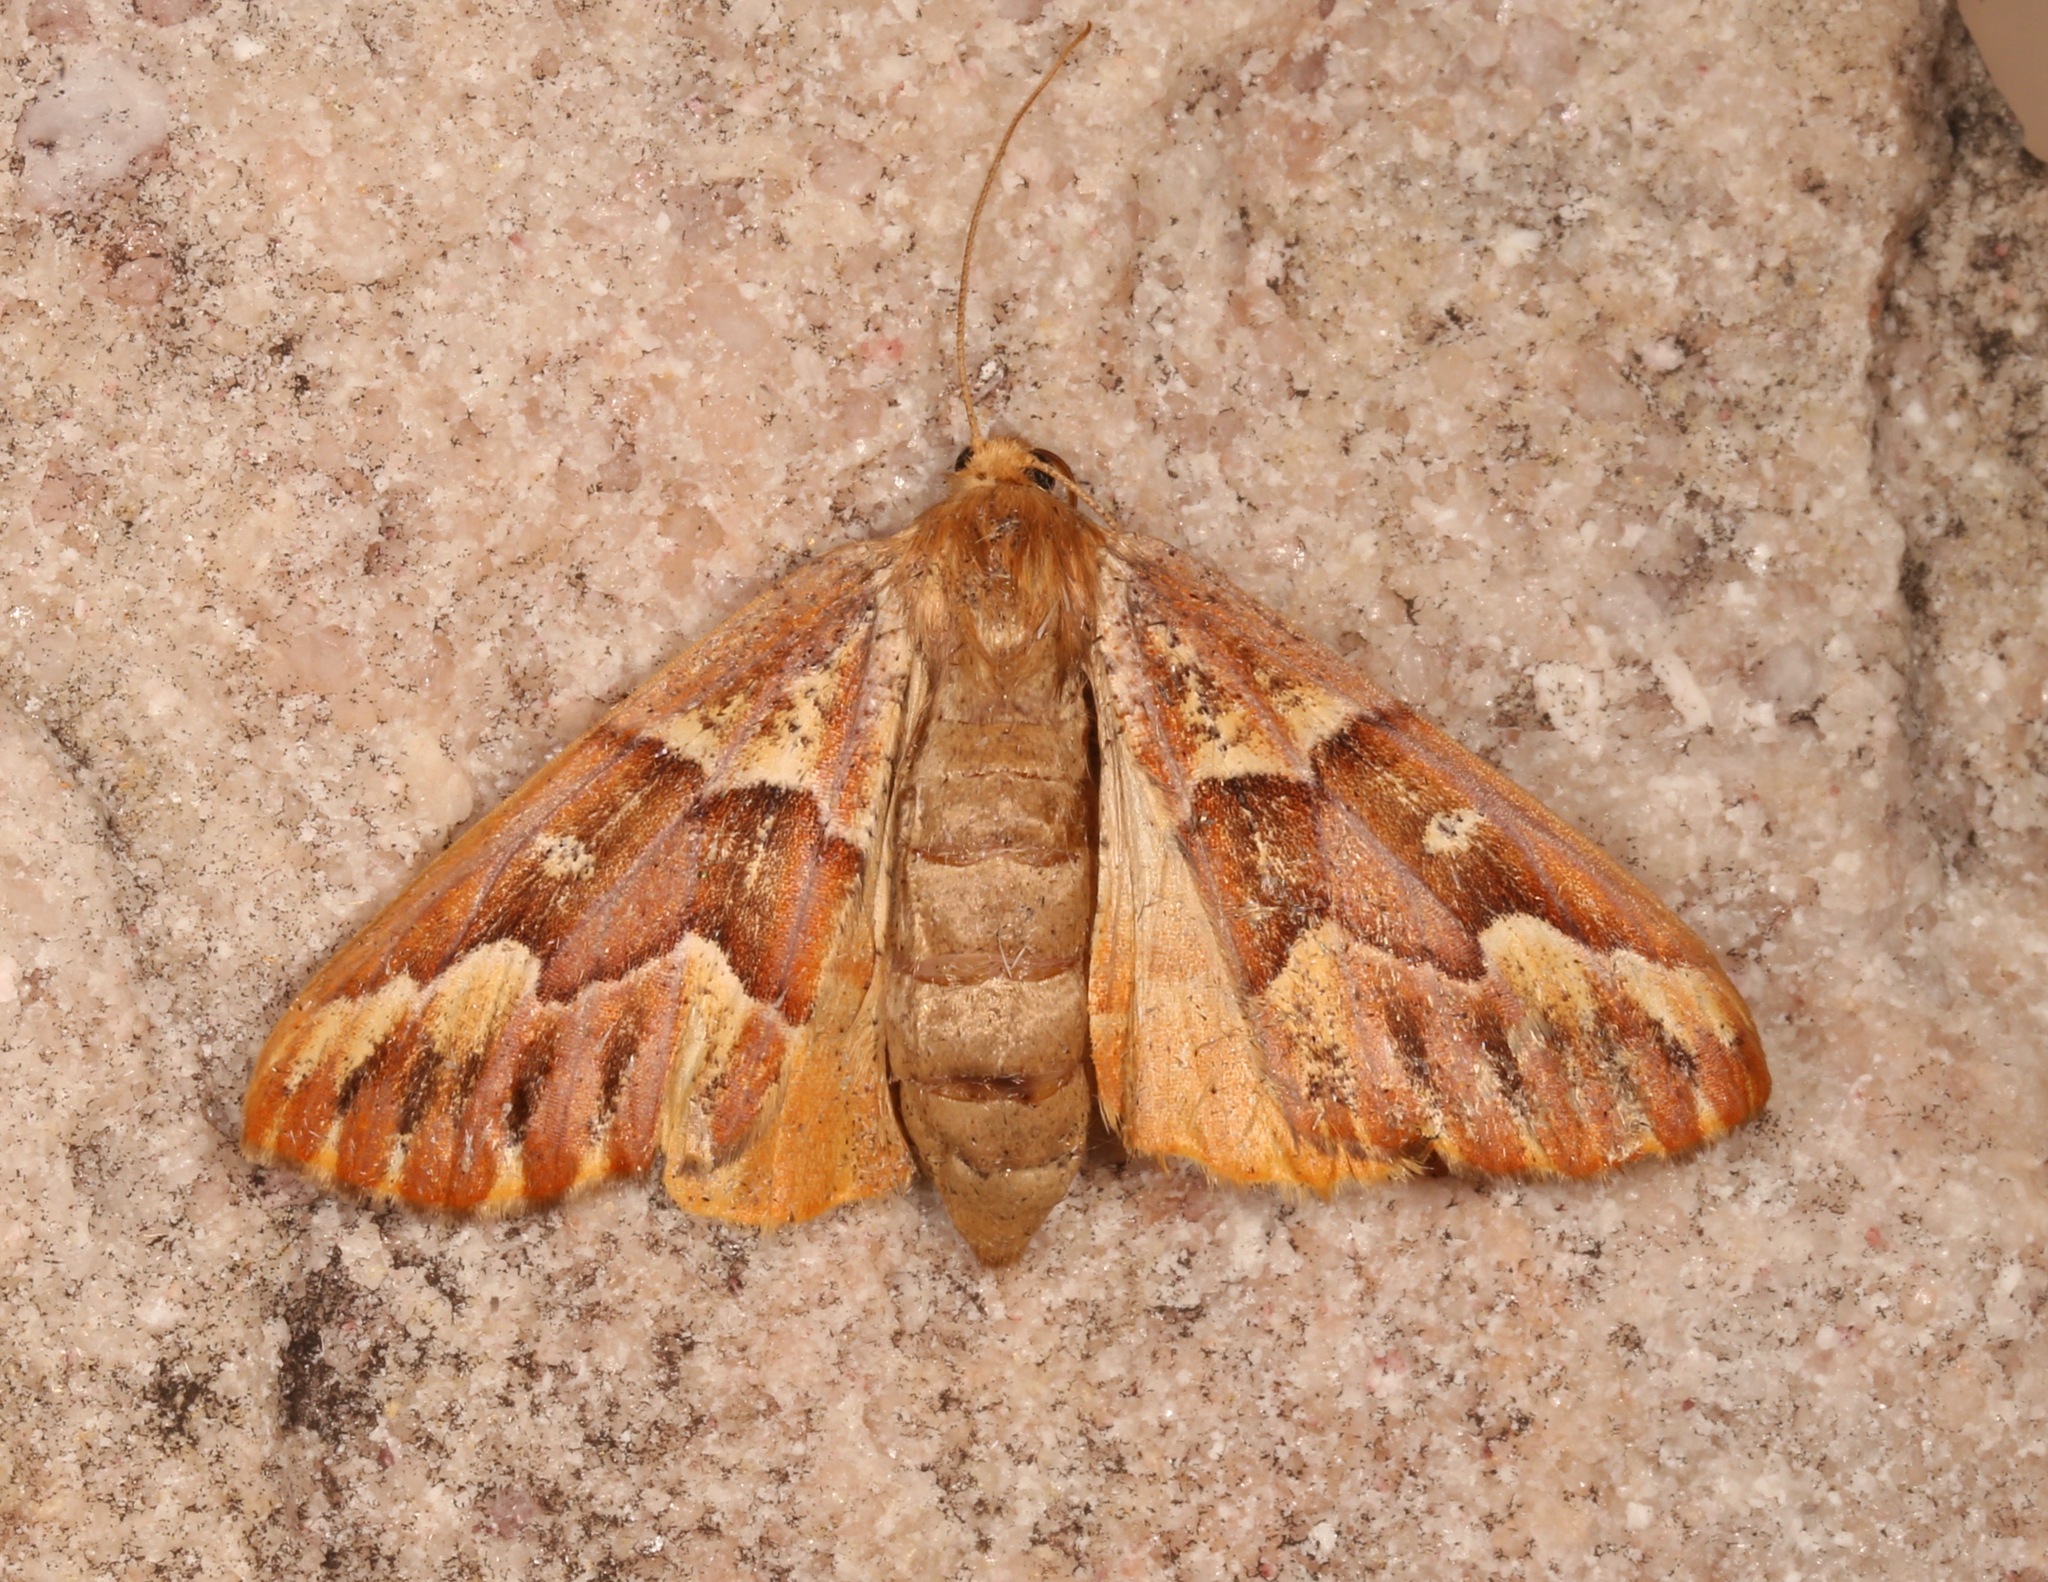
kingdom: Animalia
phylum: Arthropoda
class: Insecta
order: Lepidoptera
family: Geometridae
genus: Caripeta
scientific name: Caripeta aequaliaria
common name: Red girdle moth
